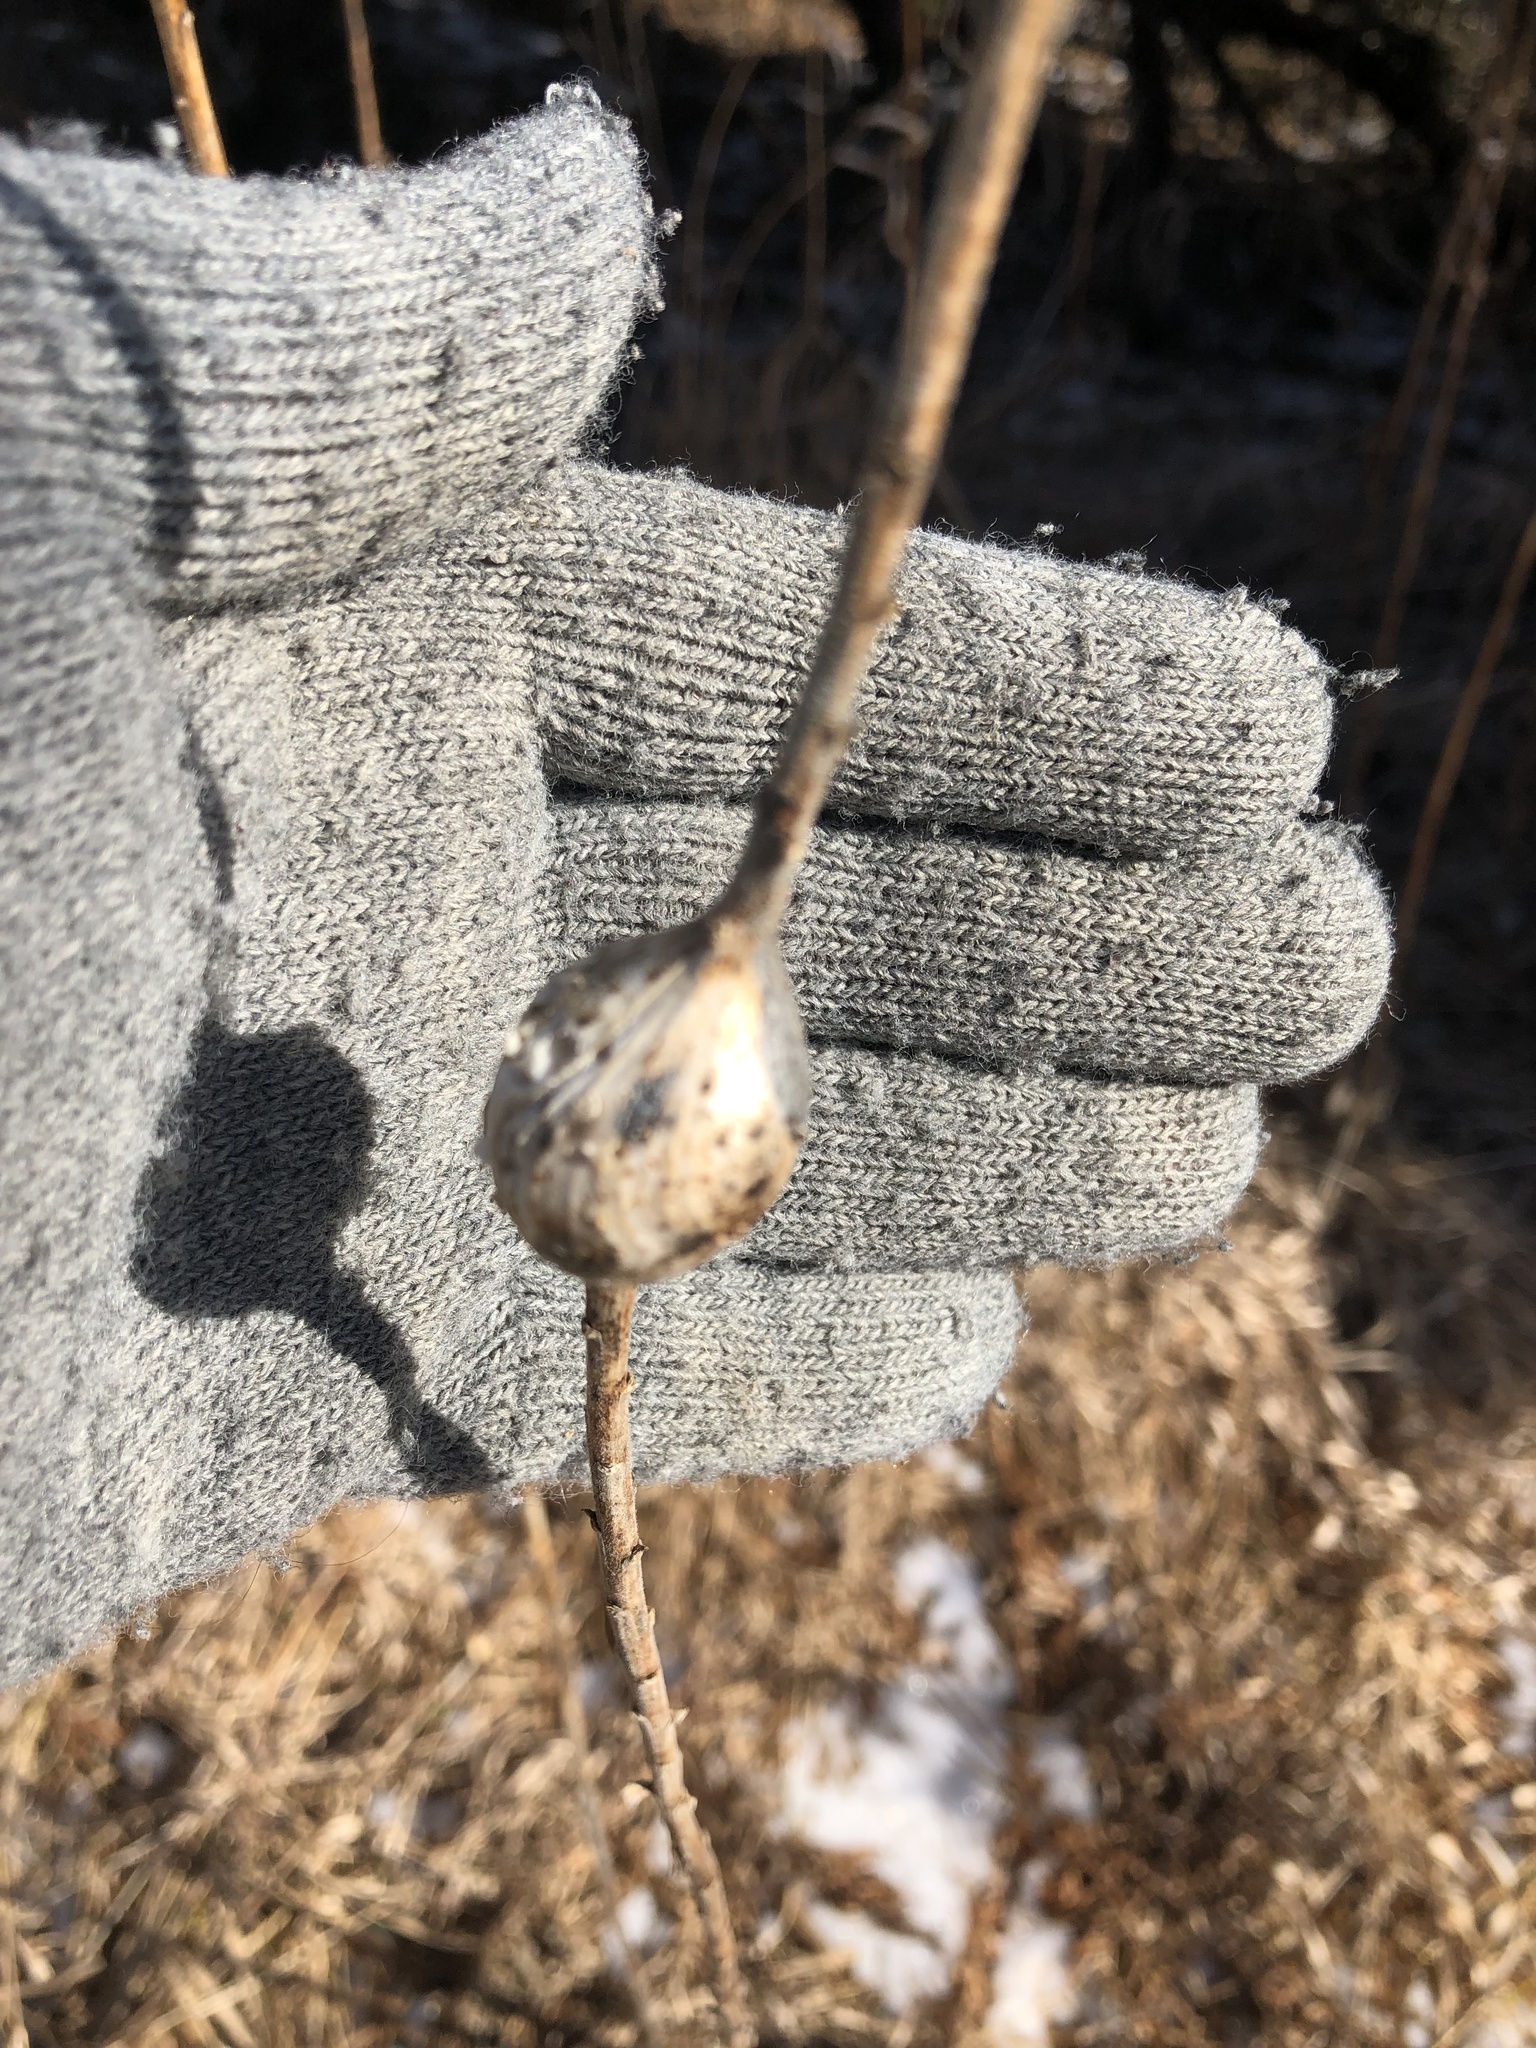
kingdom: Animalia
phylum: Arthropoda
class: Insecta
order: Diptera
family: Tephritidae
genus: Eurosta
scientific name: Eurosta solidaginis
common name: Goldenrod gall fly
